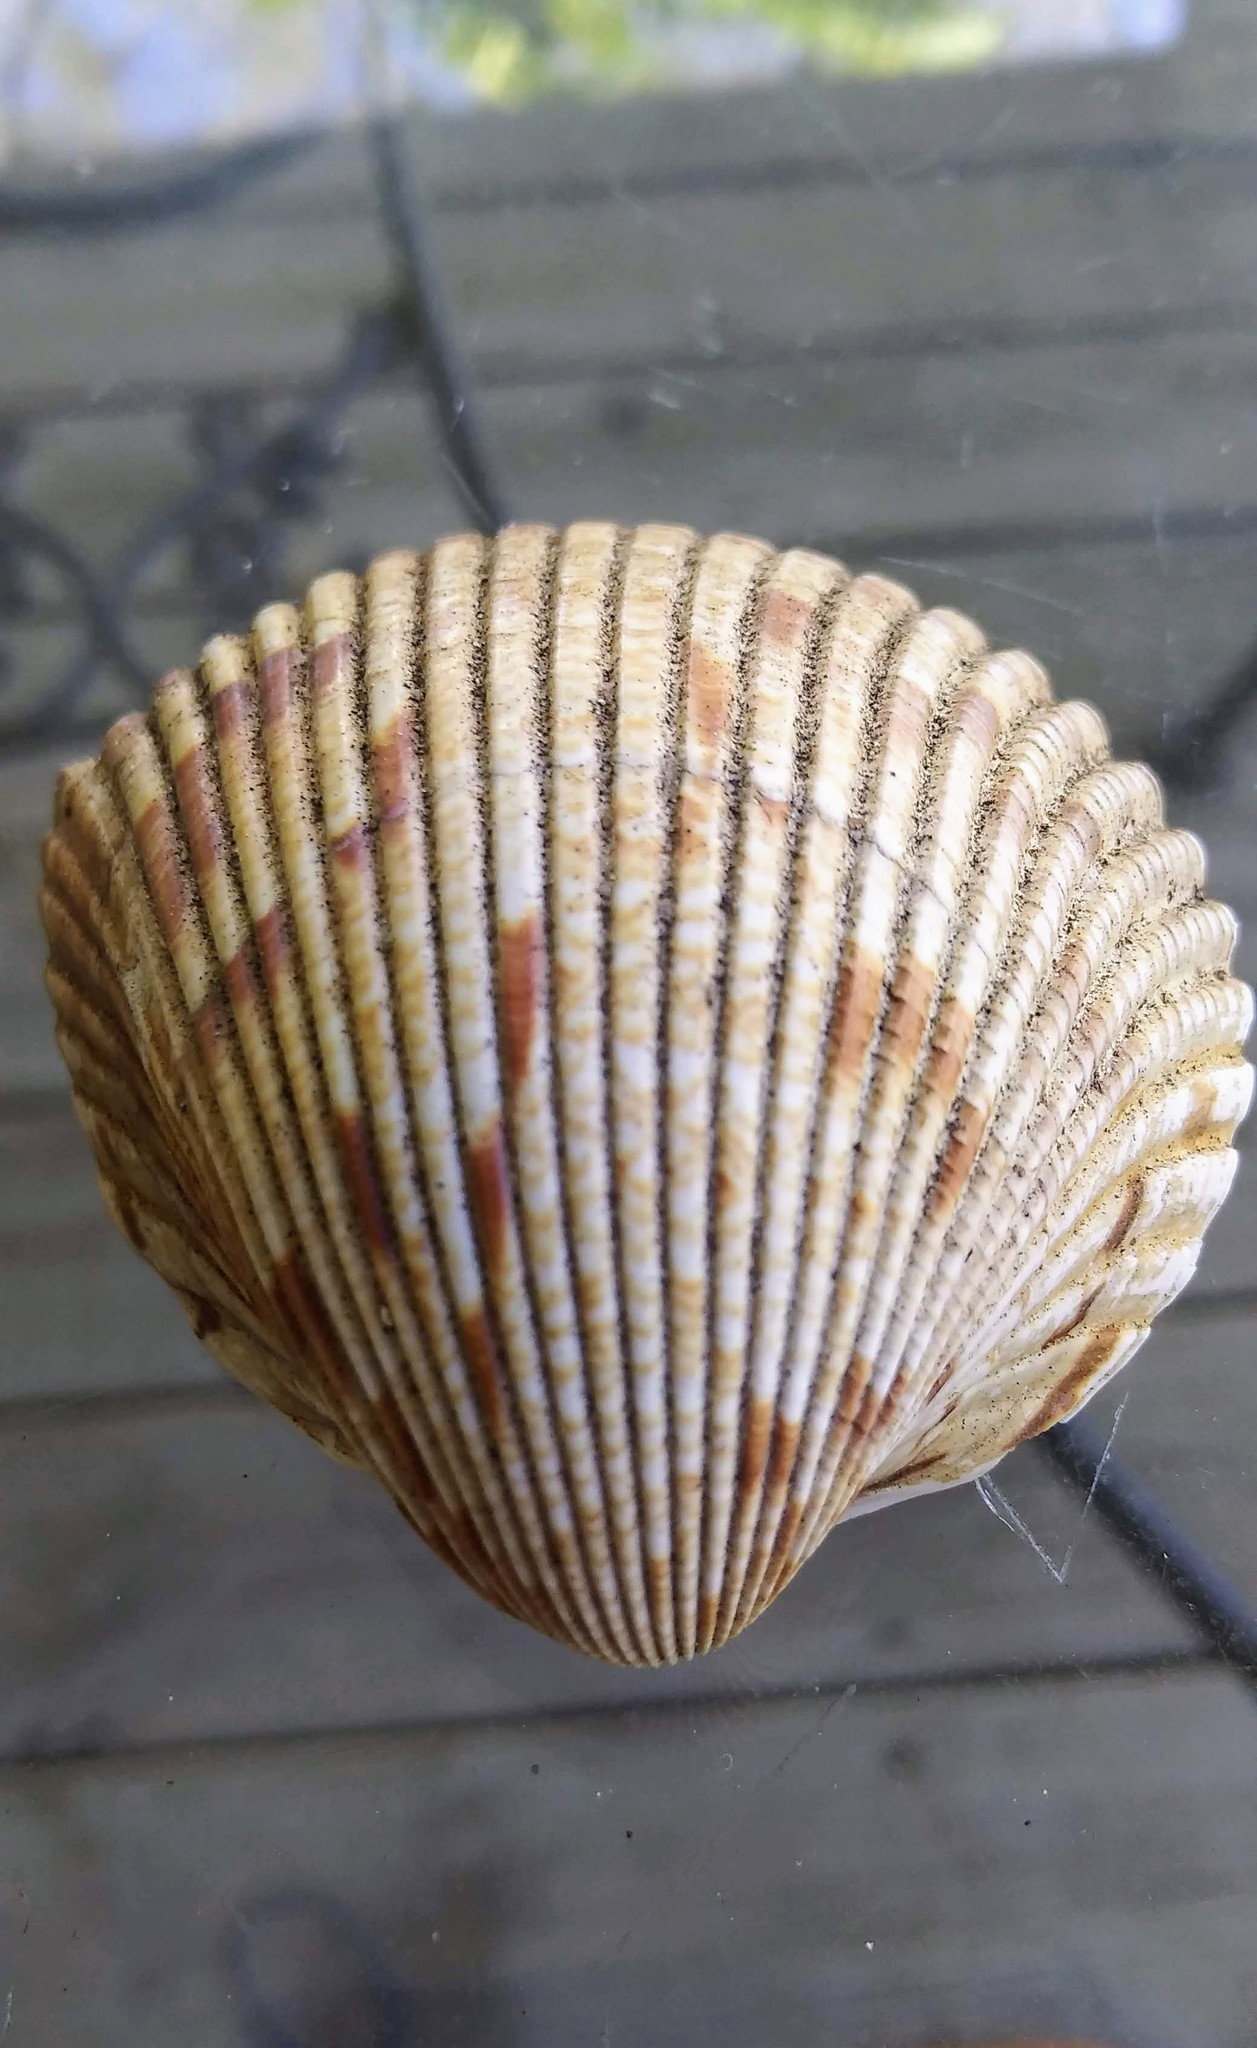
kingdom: Animalia
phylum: Mollusca
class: Bivalvia
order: Cardiida
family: Cardiidae
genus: Dinocardium
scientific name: Dinocardium robustum
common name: Atlantic giant cockle
